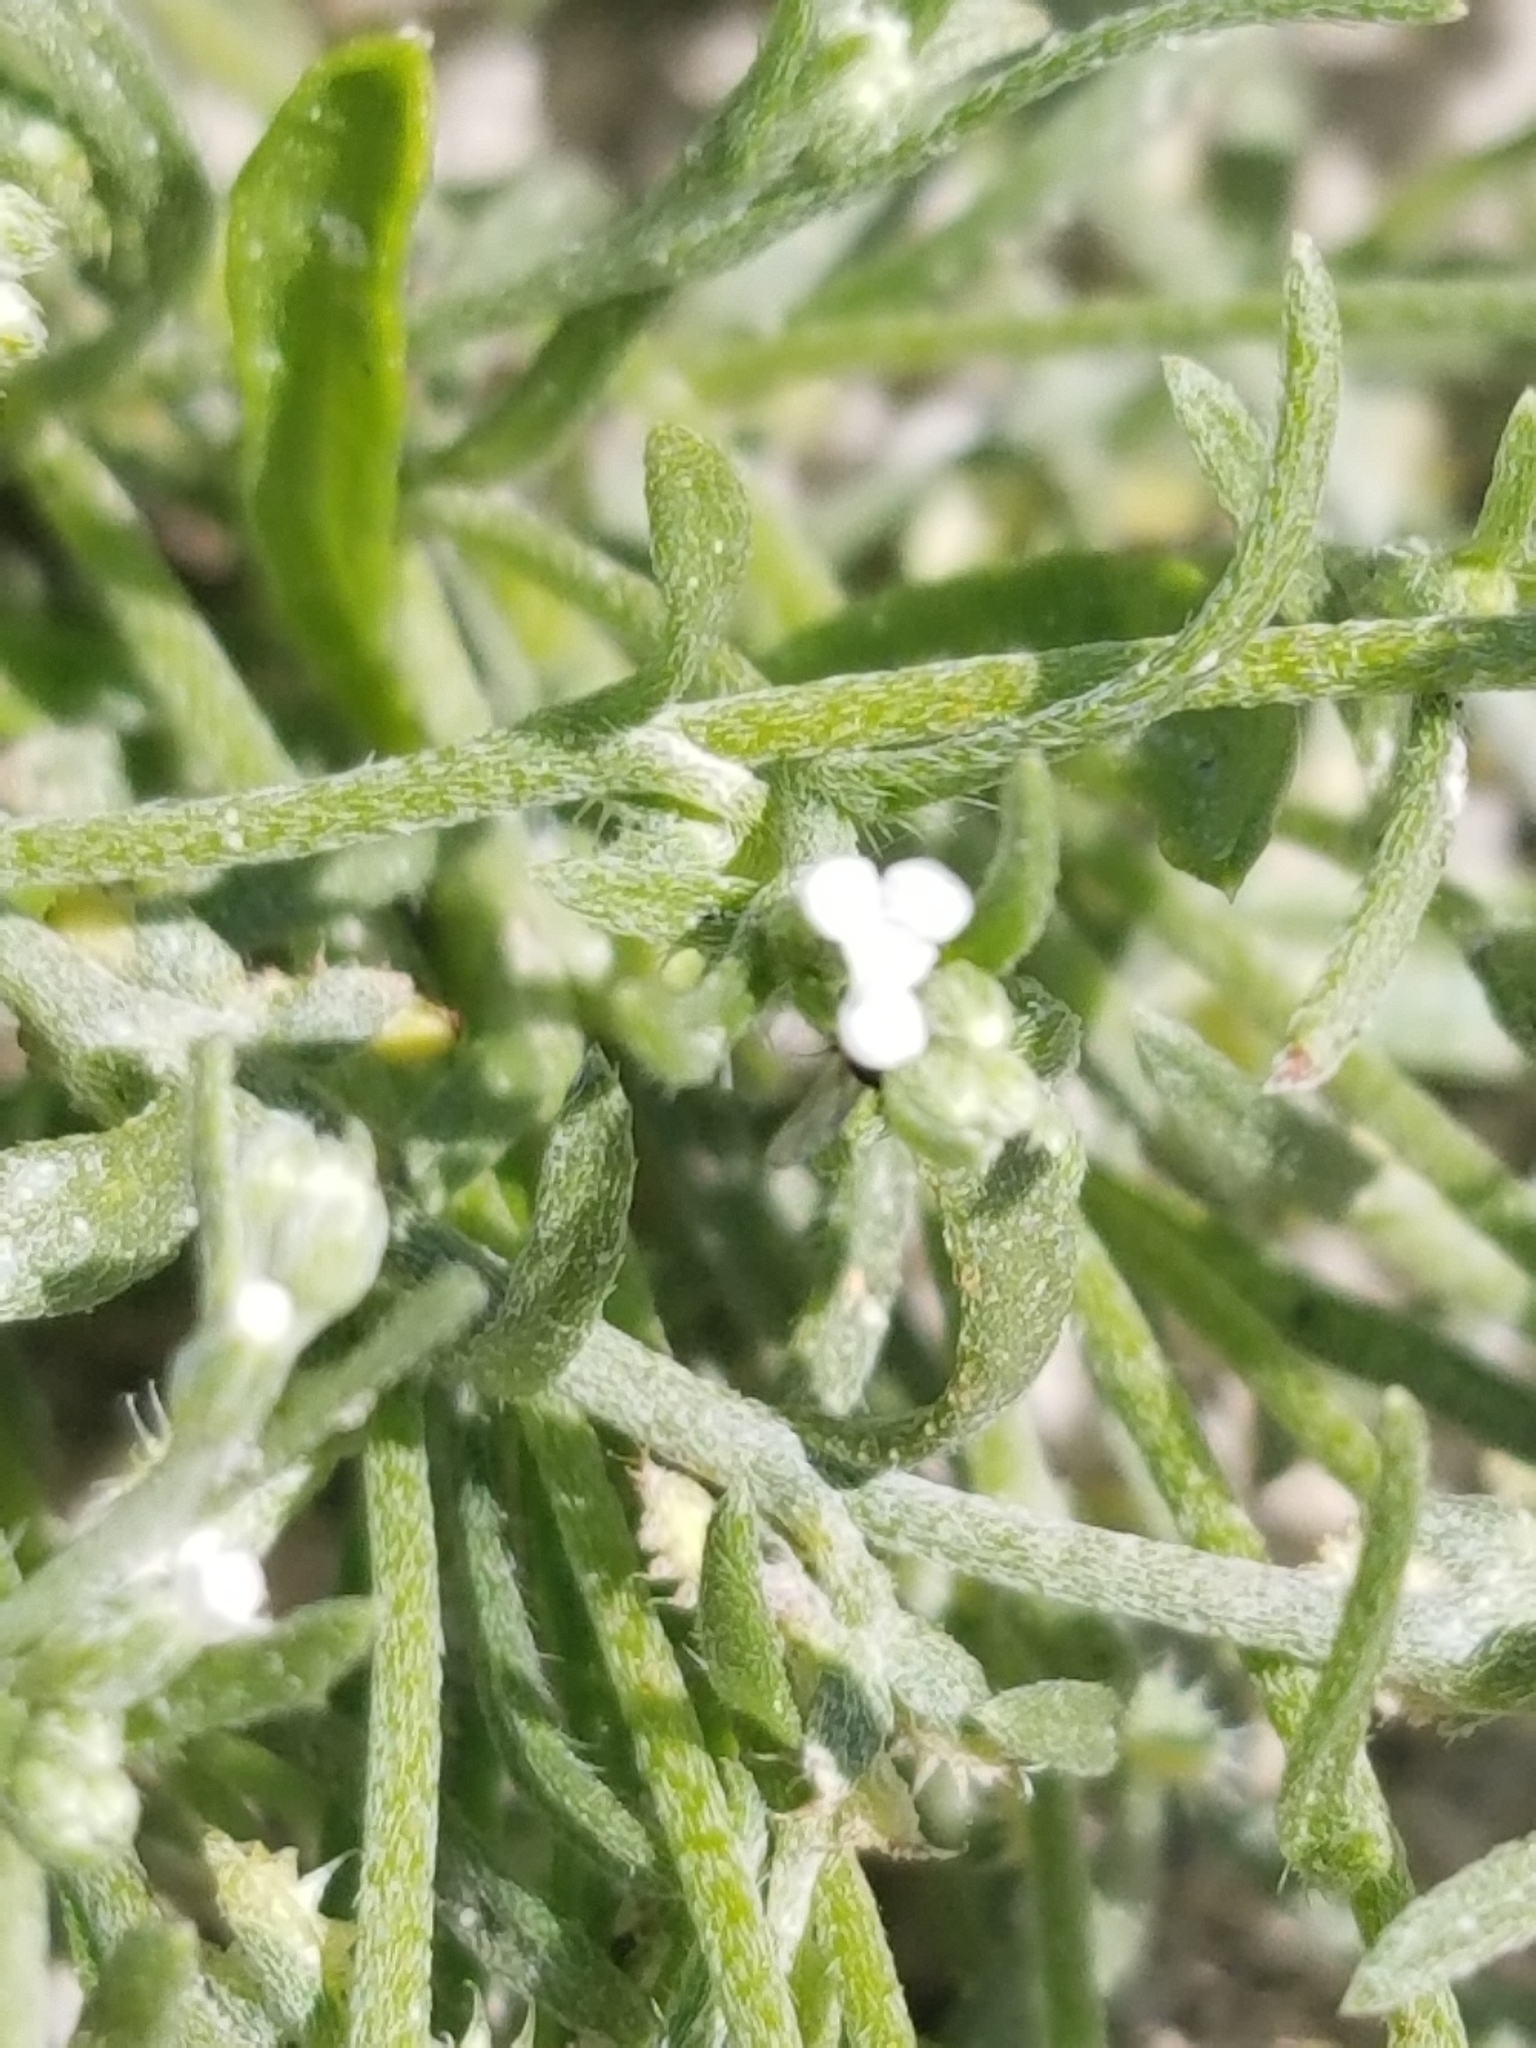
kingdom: Plantae
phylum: Tracheophyta
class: Magnoliopsida
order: Boraginales
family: Boraginaceae
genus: Pectocarya
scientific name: Pectocarya recurvata
